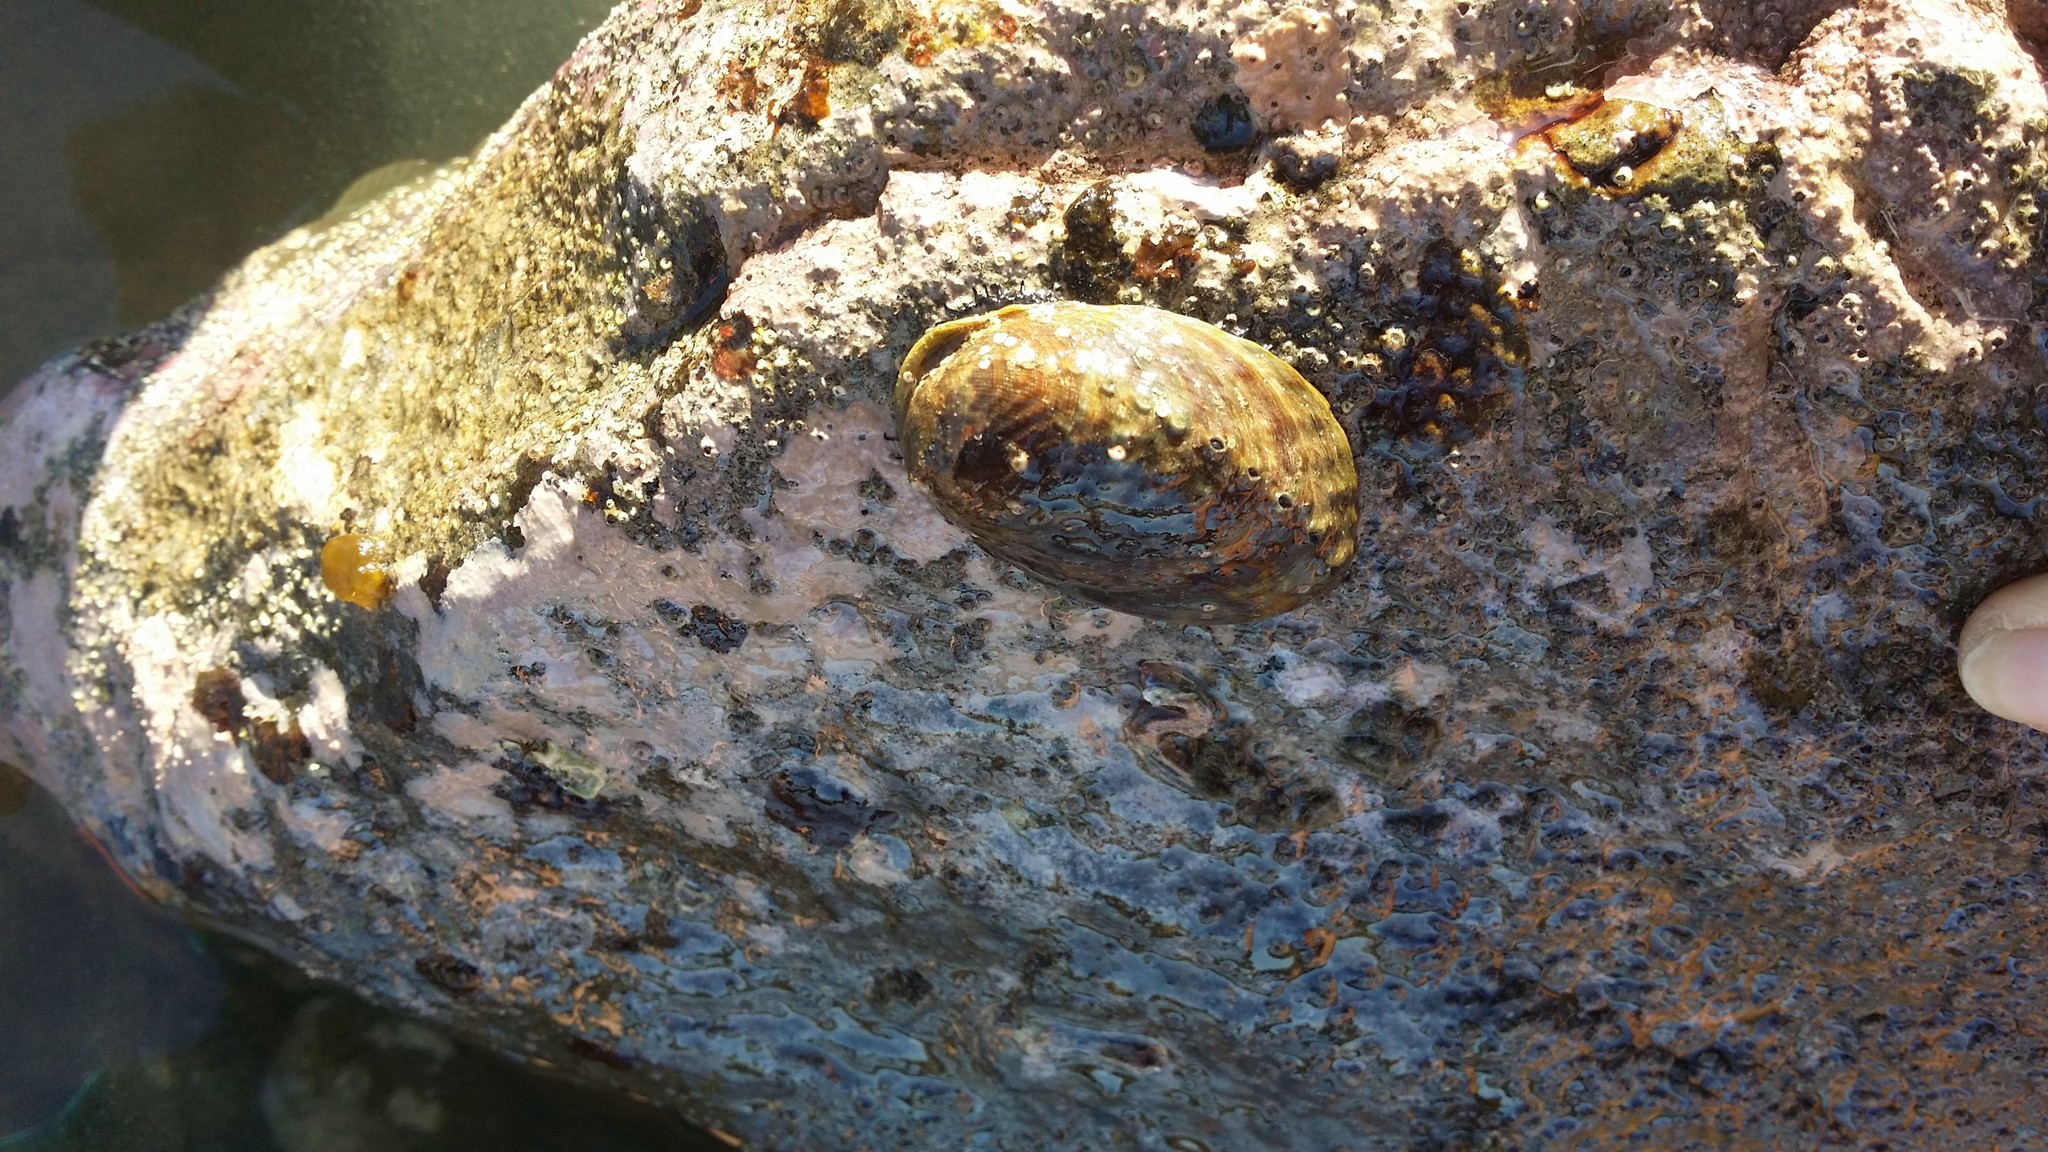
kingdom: Animalia
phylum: Mollusca
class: Gastropoda
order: Lepetellida
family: Haliotidae
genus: Haliotis
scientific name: Haliotis iris
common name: Abalone
